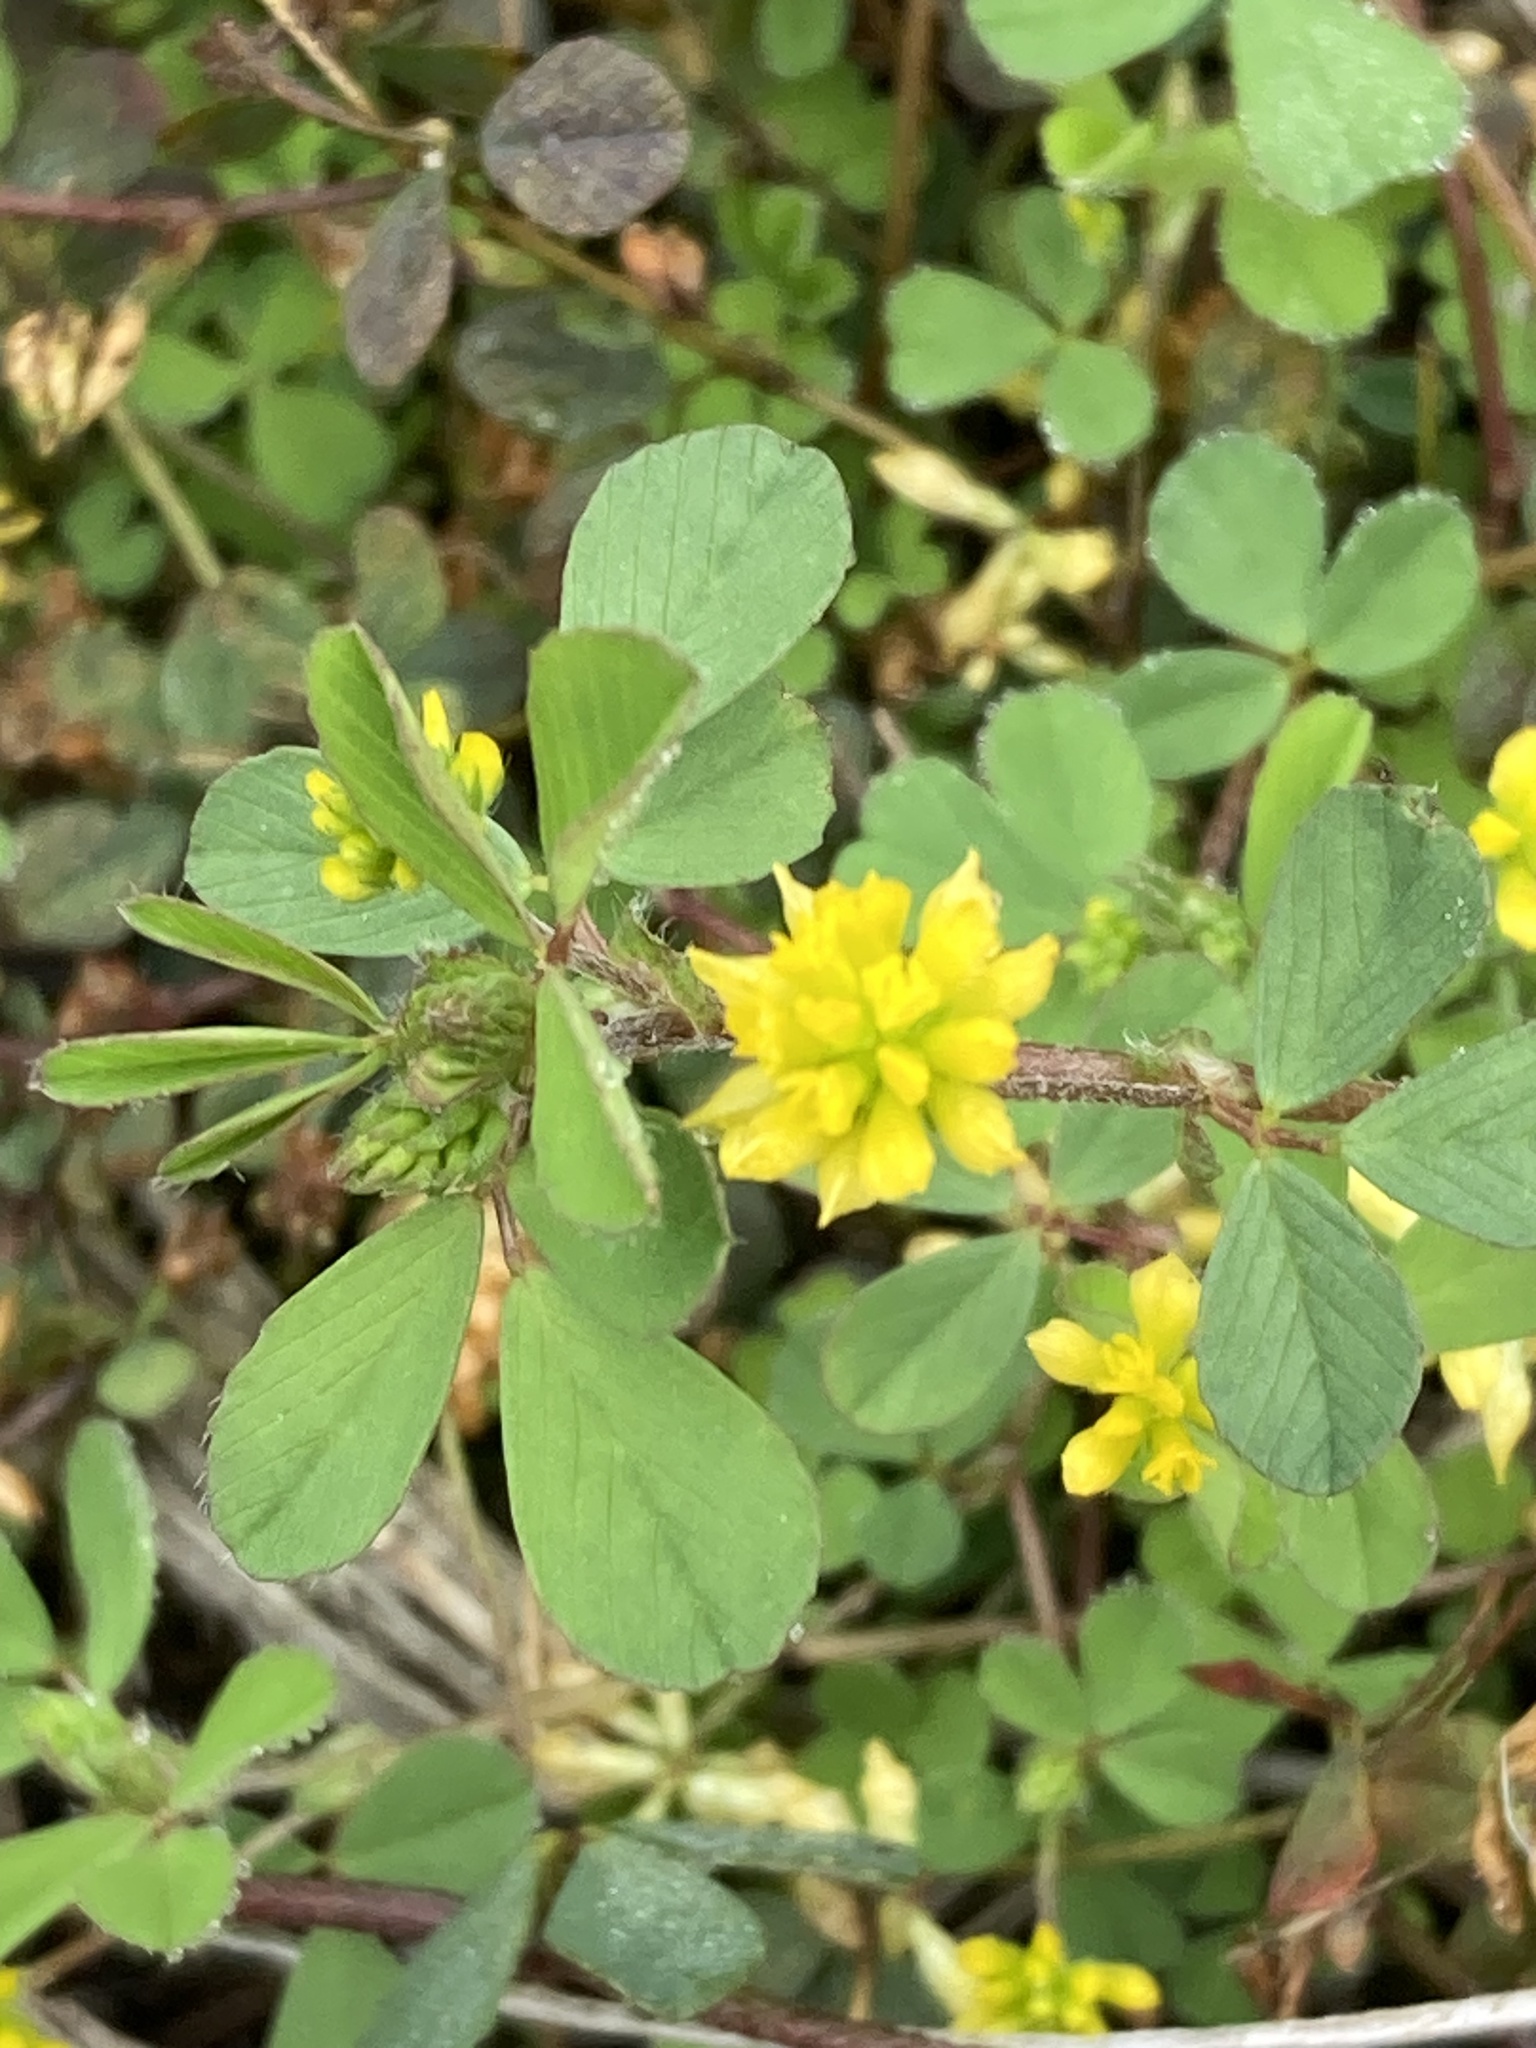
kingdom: Plantae
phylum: Tracheophyta
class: Magnoliopsida
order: Fabales
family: Fabaceae
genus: Trifolium
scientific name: Trifolium dubium
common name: Suckling clover
